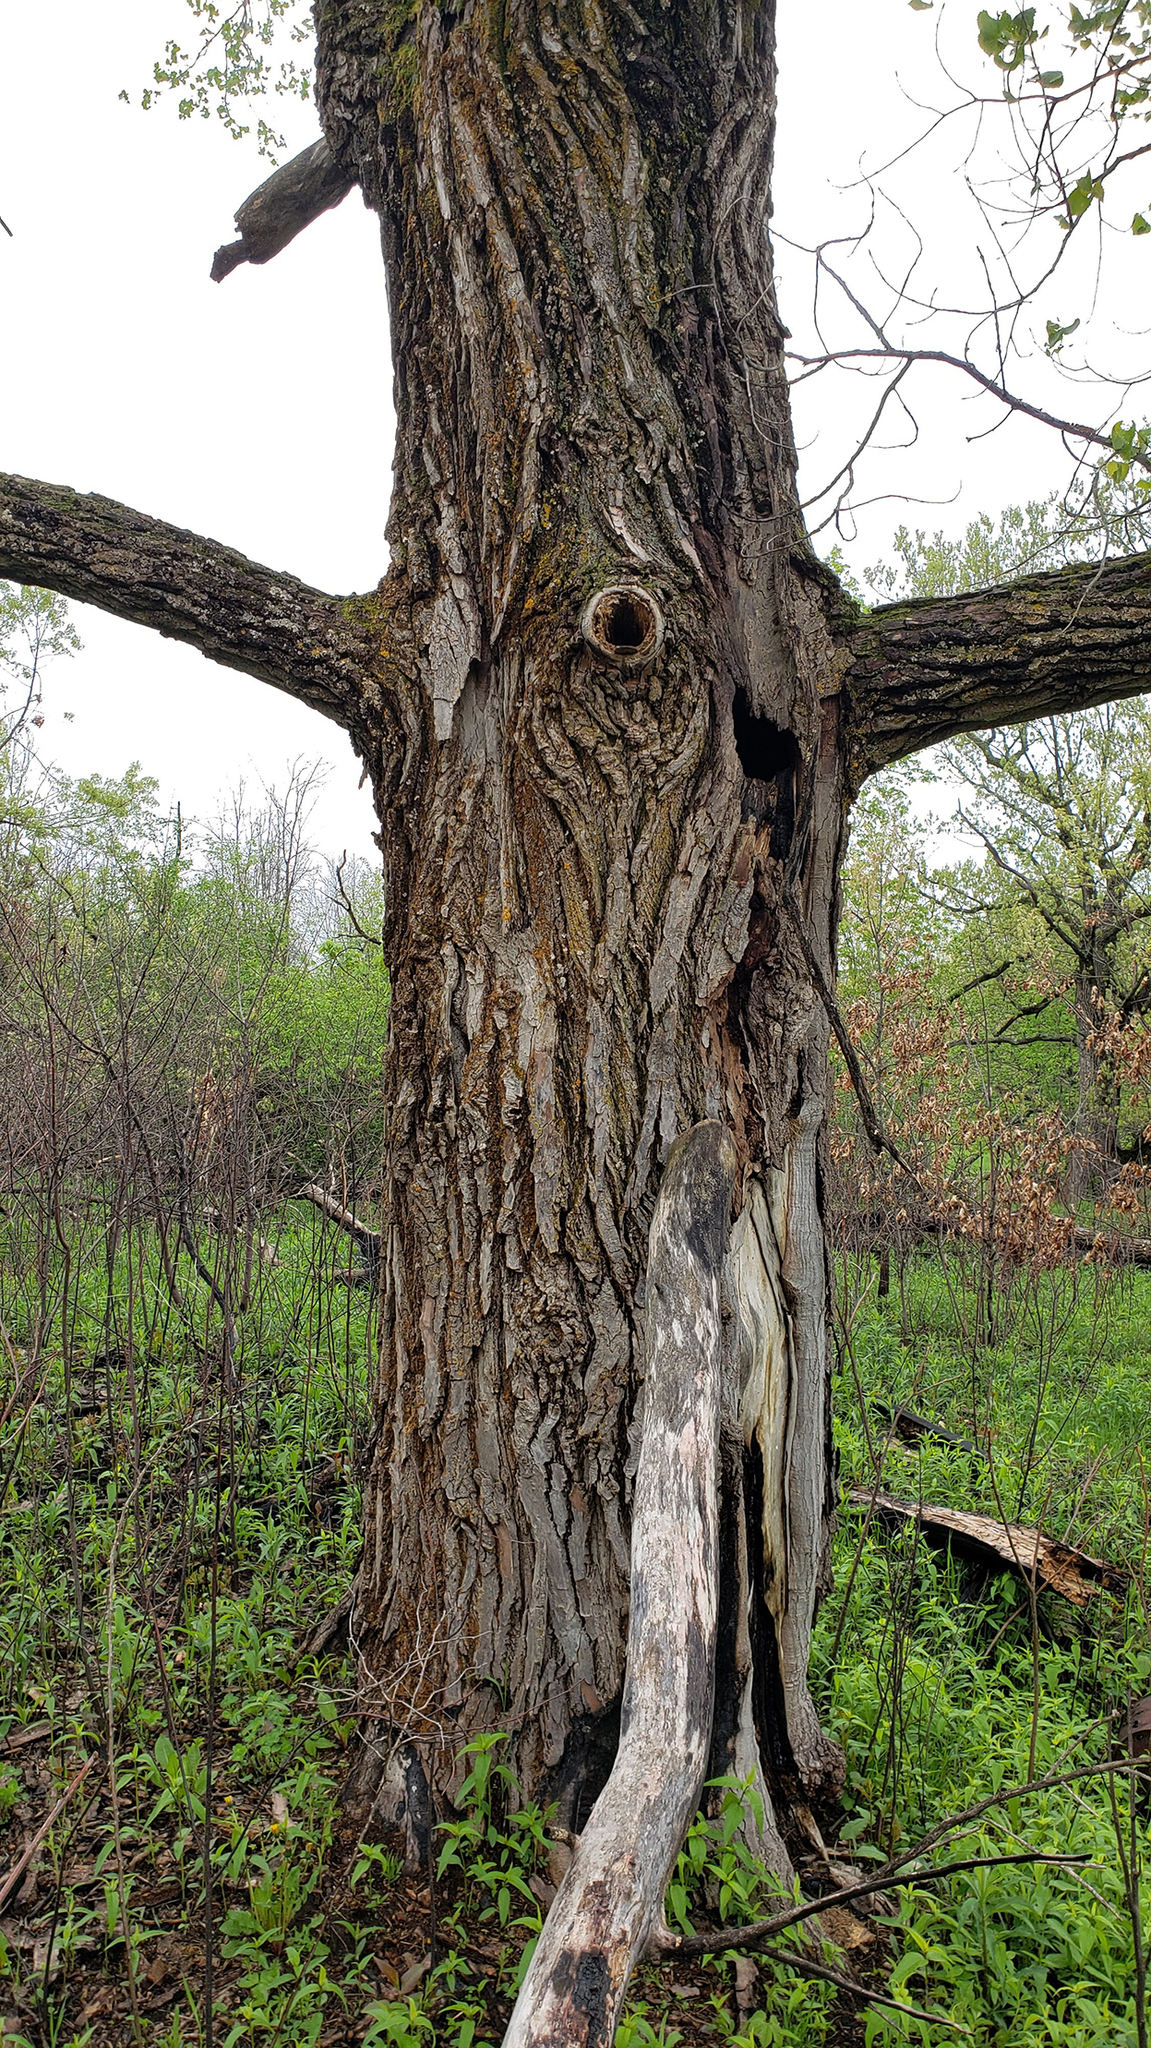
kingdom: Plantae
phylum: Tracheophyta
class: Magnoliopsida
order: Malpighiales
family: Salicaceae
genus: Populus
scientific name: Populus deltoides
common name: Eastern cottonwood
